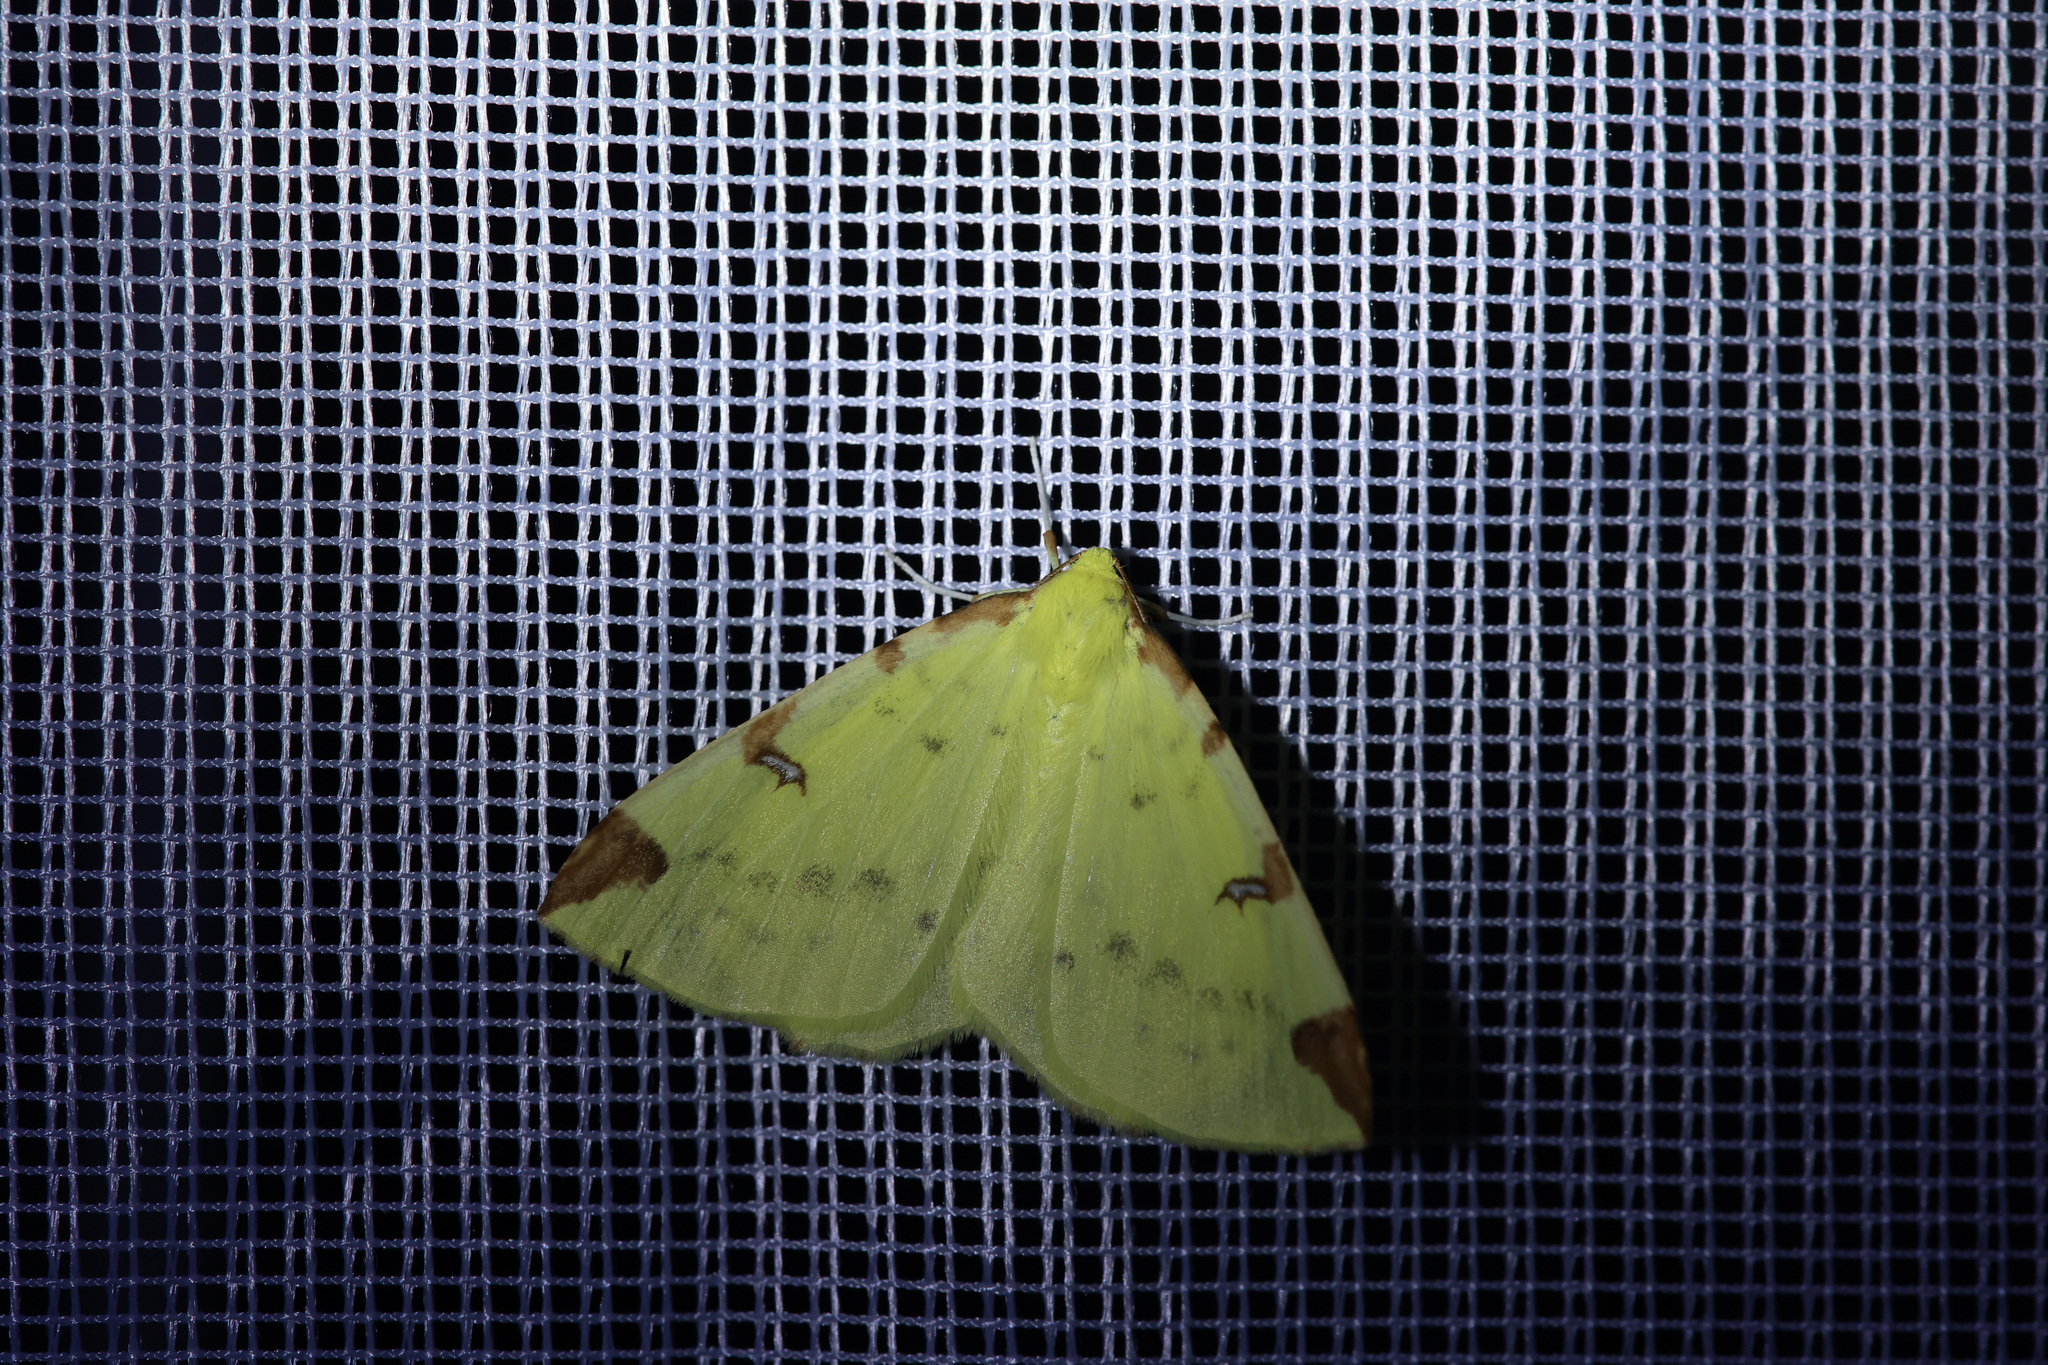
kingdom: Animalia
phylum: Arthropoda
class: Insecta
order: Lepidoptera
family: Geometridae
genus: Opisthograptis
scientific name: Opisthograptis luteolata
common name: Brimstone moth
